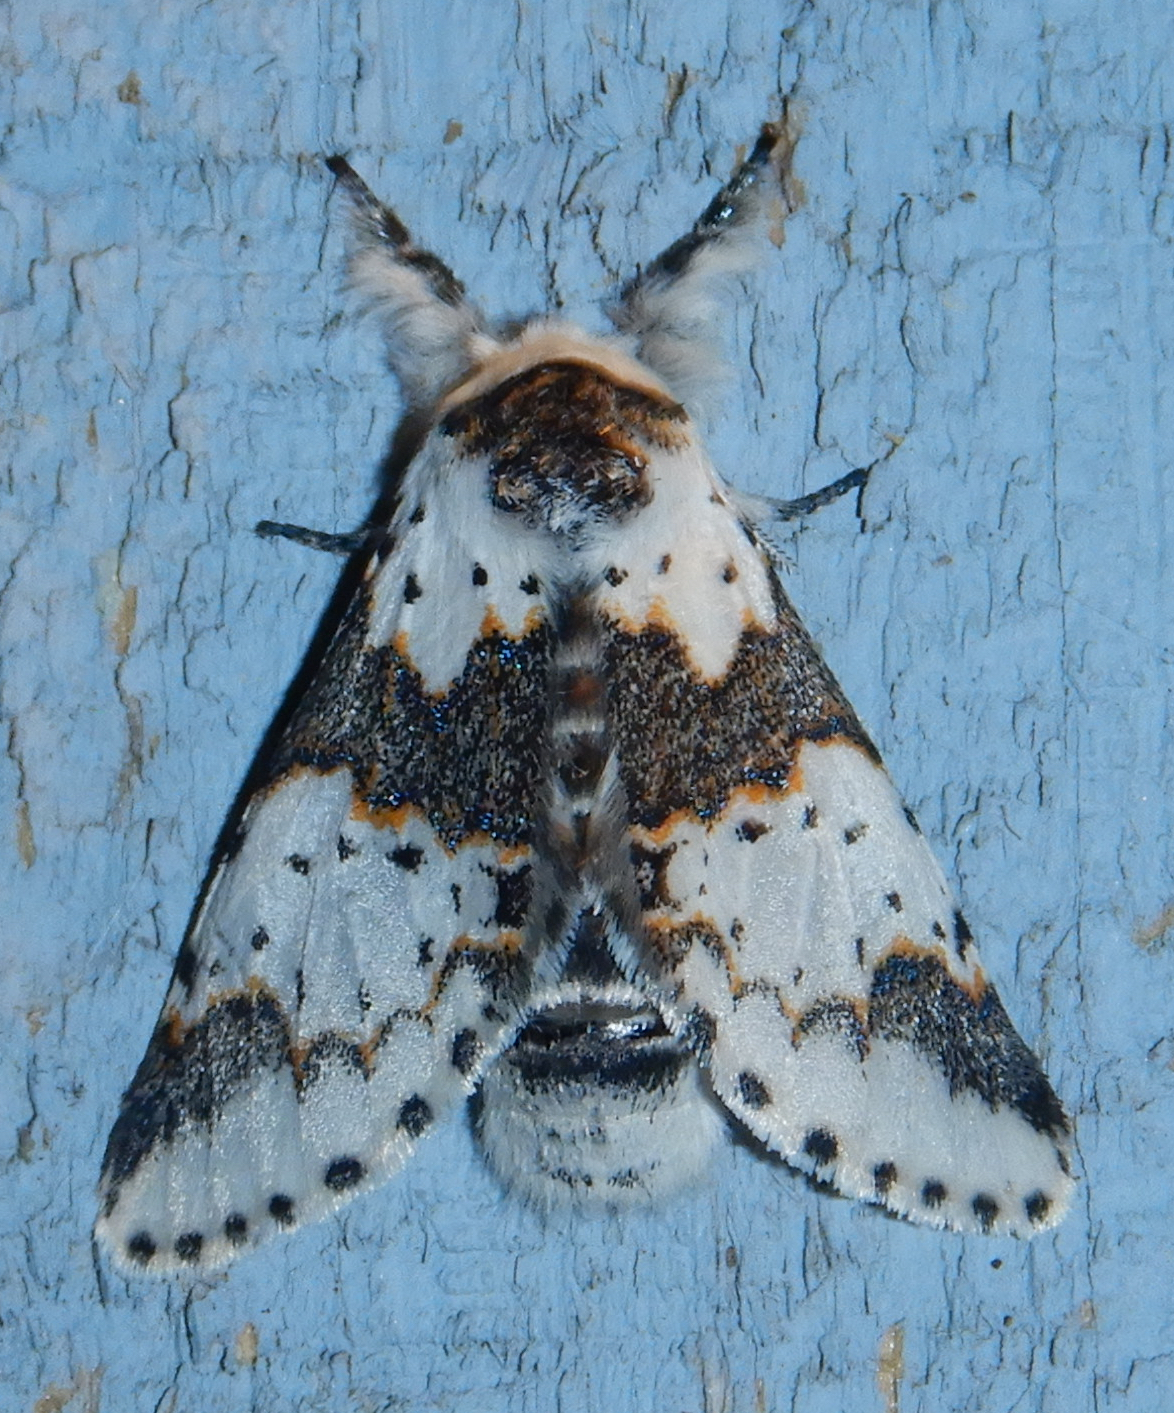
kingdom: Animalia
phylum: Arthropoda
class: Insecta
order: Lepidoptera
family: Notodontidae
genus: Furcula
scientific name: Furcula borealis
